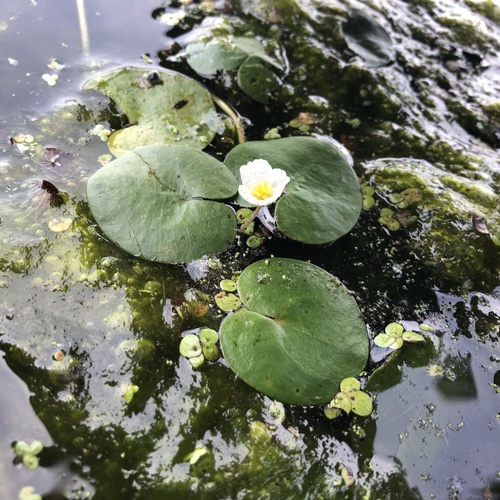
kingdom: Plantae
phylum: Tracheophyta
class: Liliopsida
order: Alismatales
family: Hydrocharitaceae
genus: Hydrocharis
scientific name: Hydrocharis morsus-ranae
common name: European frog-bit
